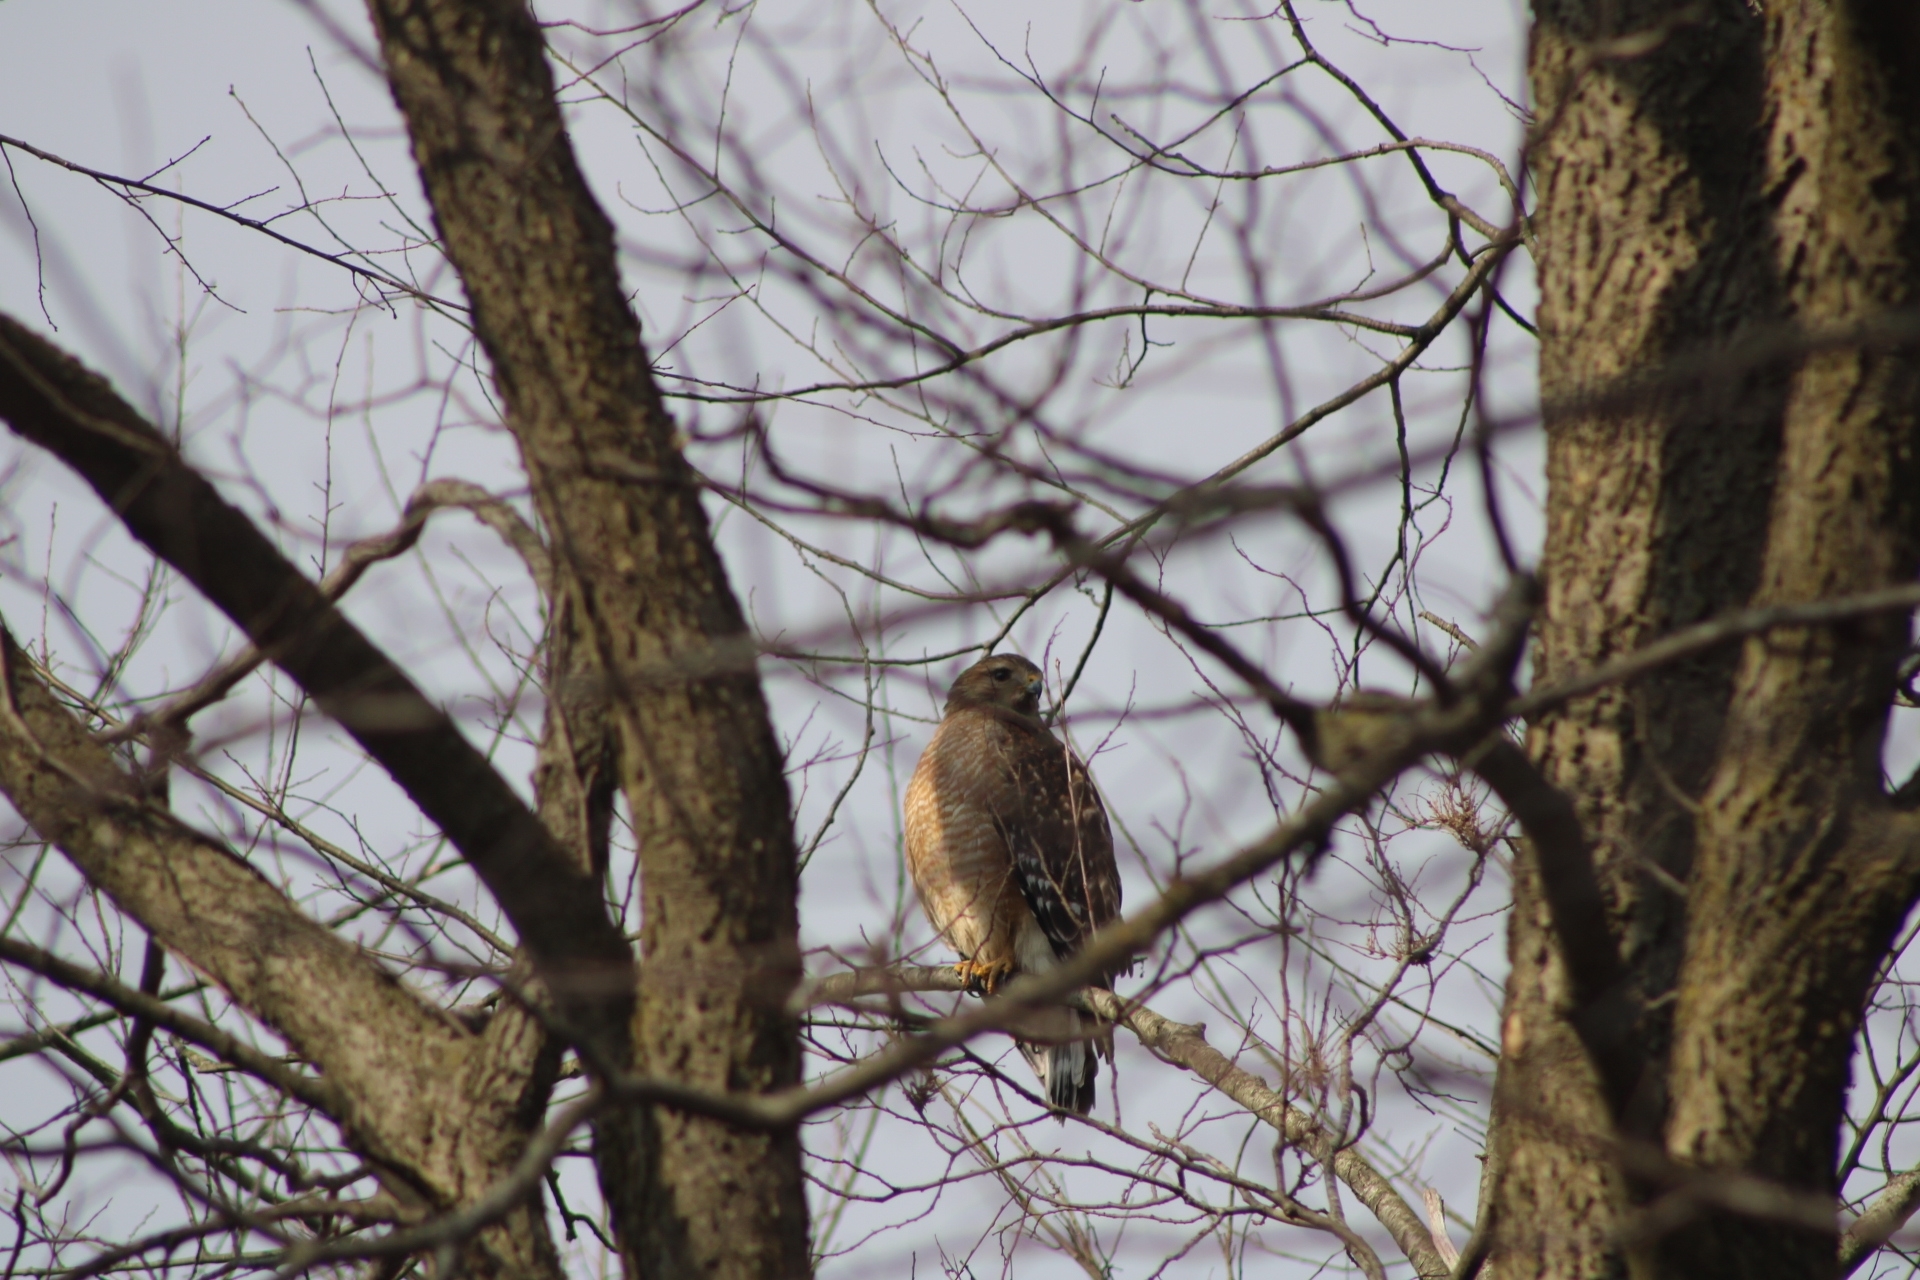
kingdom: Animalia
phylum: Chordata
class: Aves
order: Accipitriformes
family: Accipitridae
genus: Buteo
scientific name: Buteo lineatus
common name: Red-shouldered hawk
